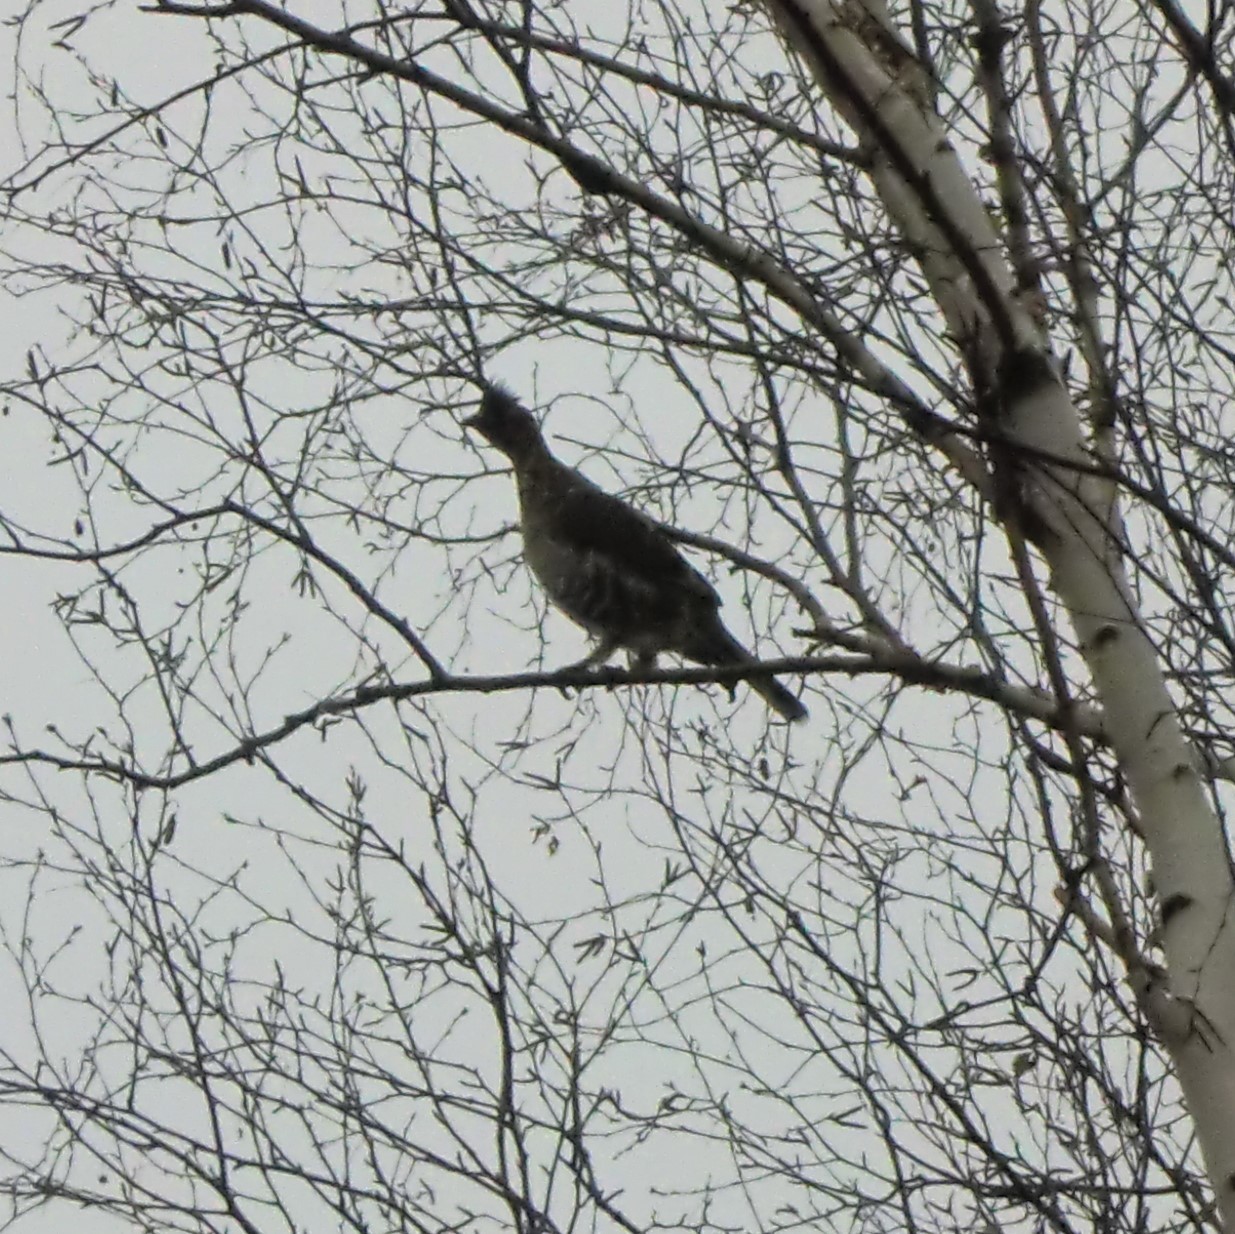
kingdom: Animalia
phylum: Chordata
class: Aves
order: Galliformes
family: Phasianidae
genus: Bonasa
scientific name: Bonasa umbellus
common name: Ruffed grouse
